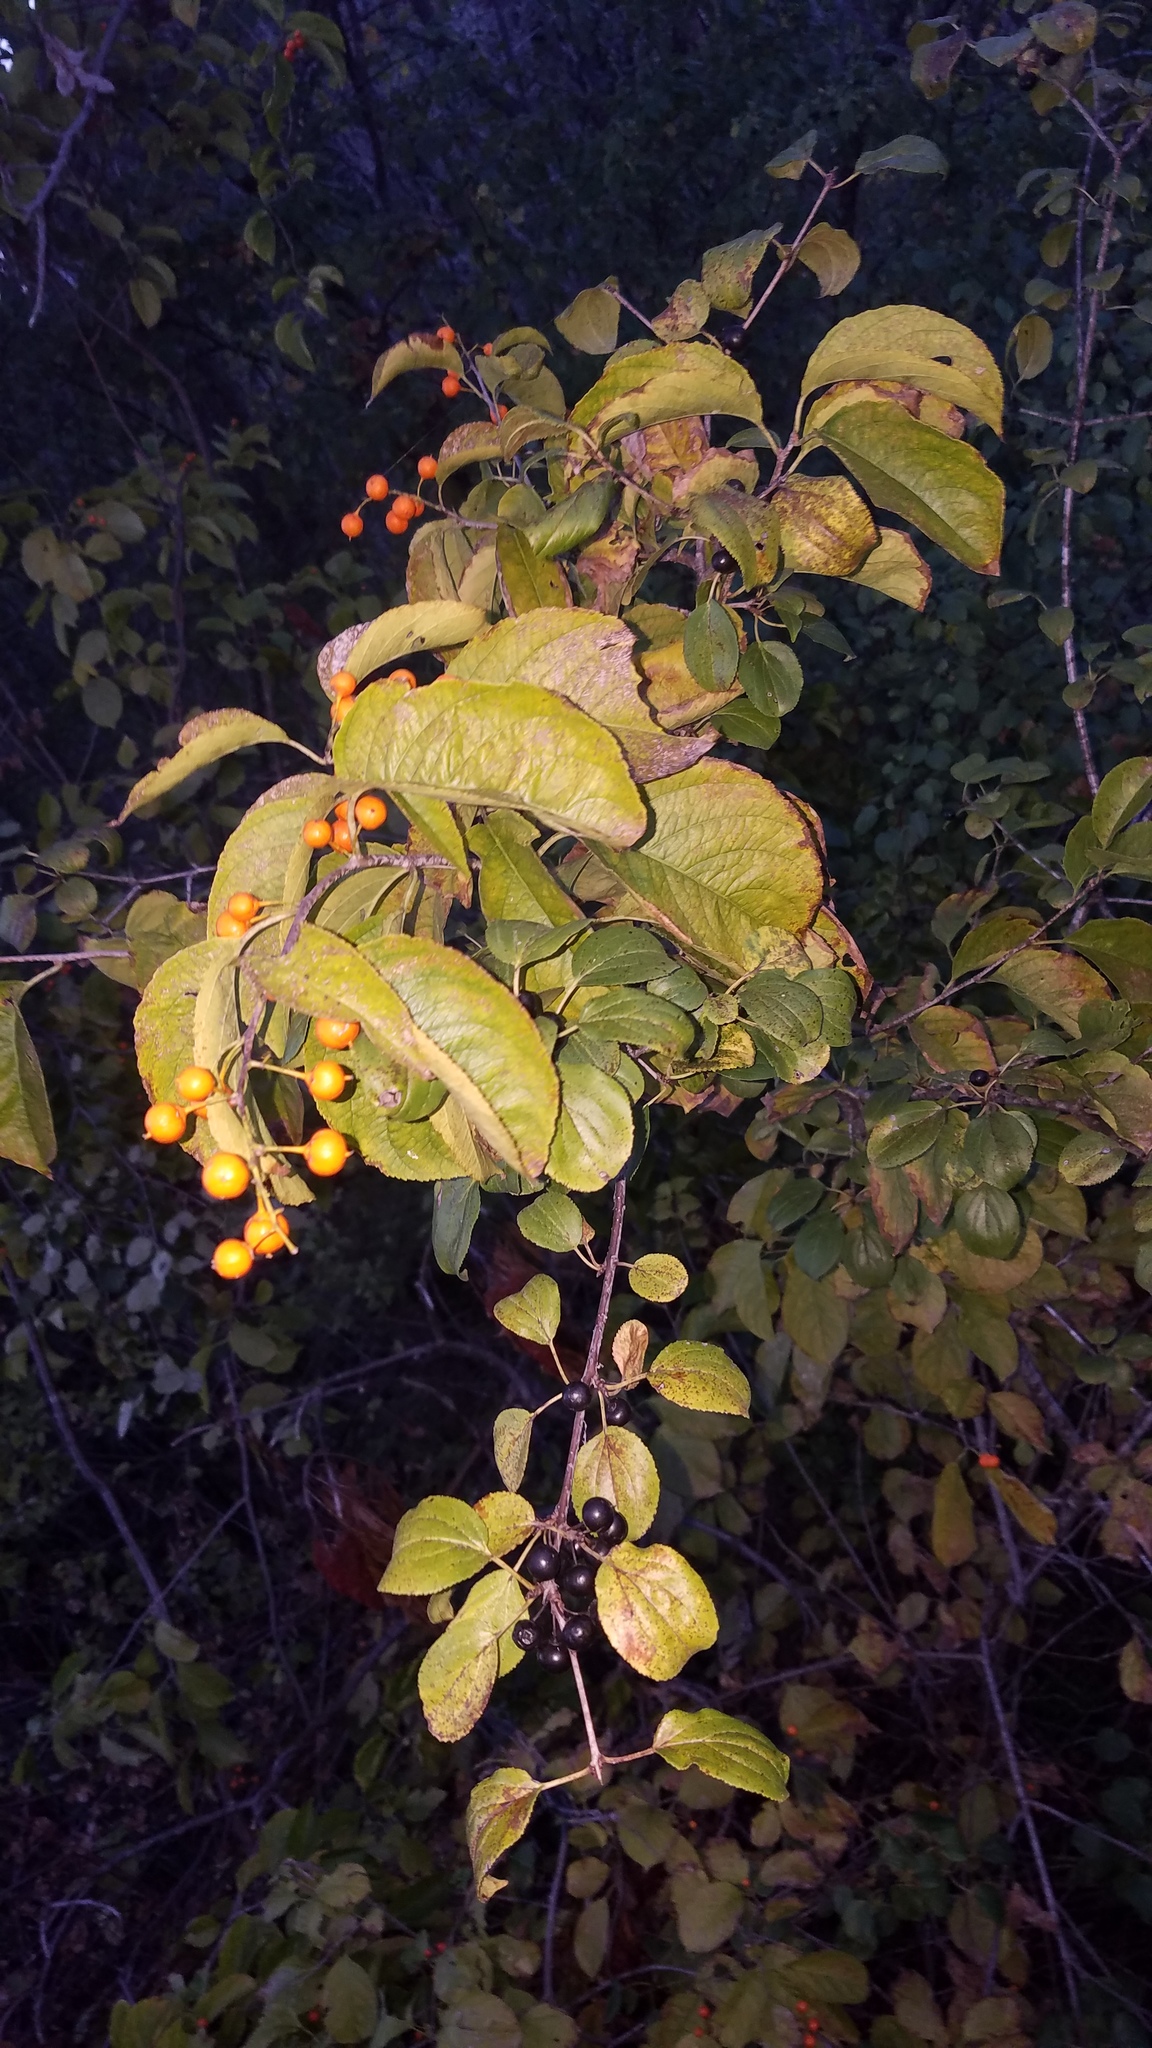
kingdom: Plantae
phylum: Tracheophyta
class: Magnoliopsida
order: Celastrales
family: Celastraceae
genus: Celastrus
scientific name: Celastrus scandens
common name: American bittersweet
